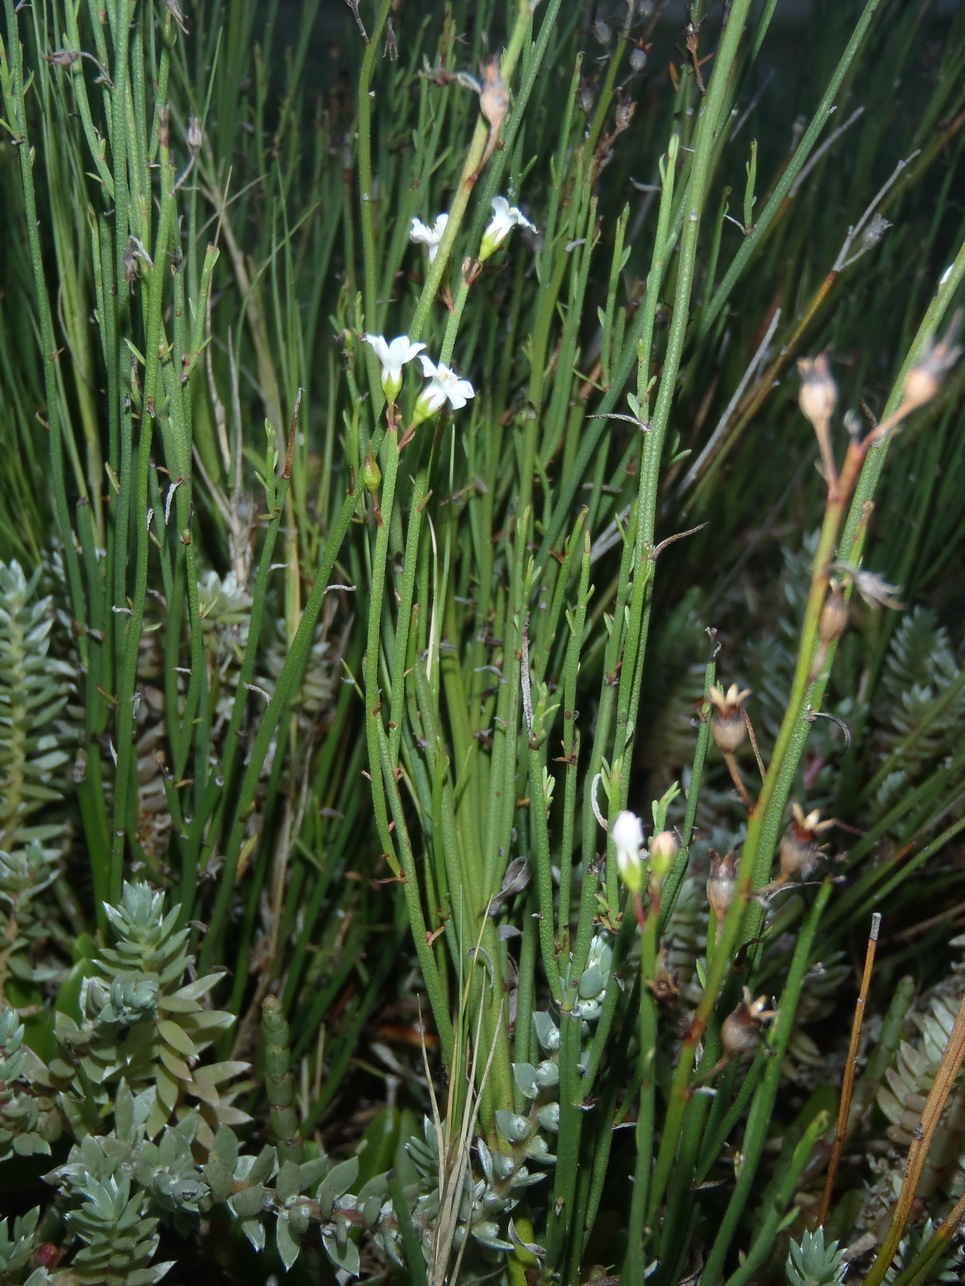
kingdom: Plantae
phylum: Tracheophyta
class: Magnoliopsida
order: Ericales
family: Primulaceae
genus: Samolus
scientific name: Samolus porosus
